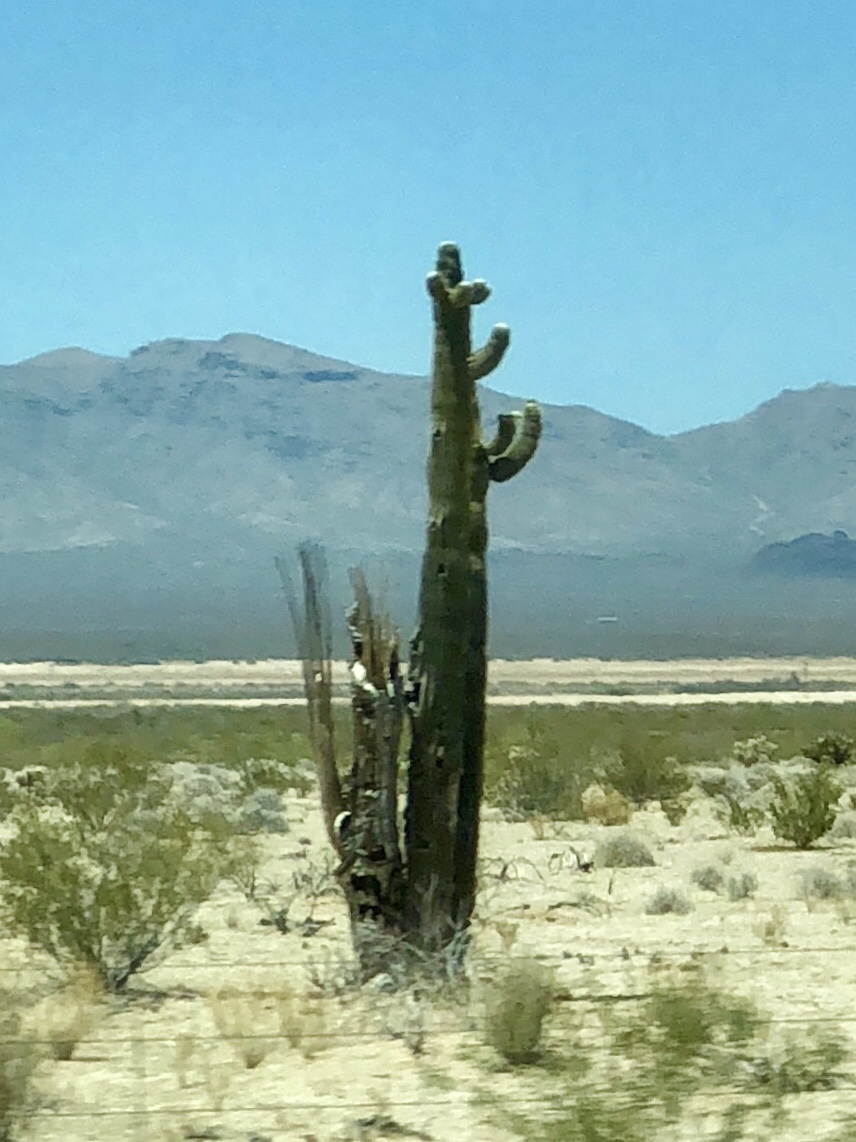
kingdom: Plantae
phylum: Tracheophyta
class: Magnoliopsida
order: Caryophyllales
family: Cactaceae
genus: Carnegiea
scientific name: Carnegiea gigantea
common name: Saguaro
